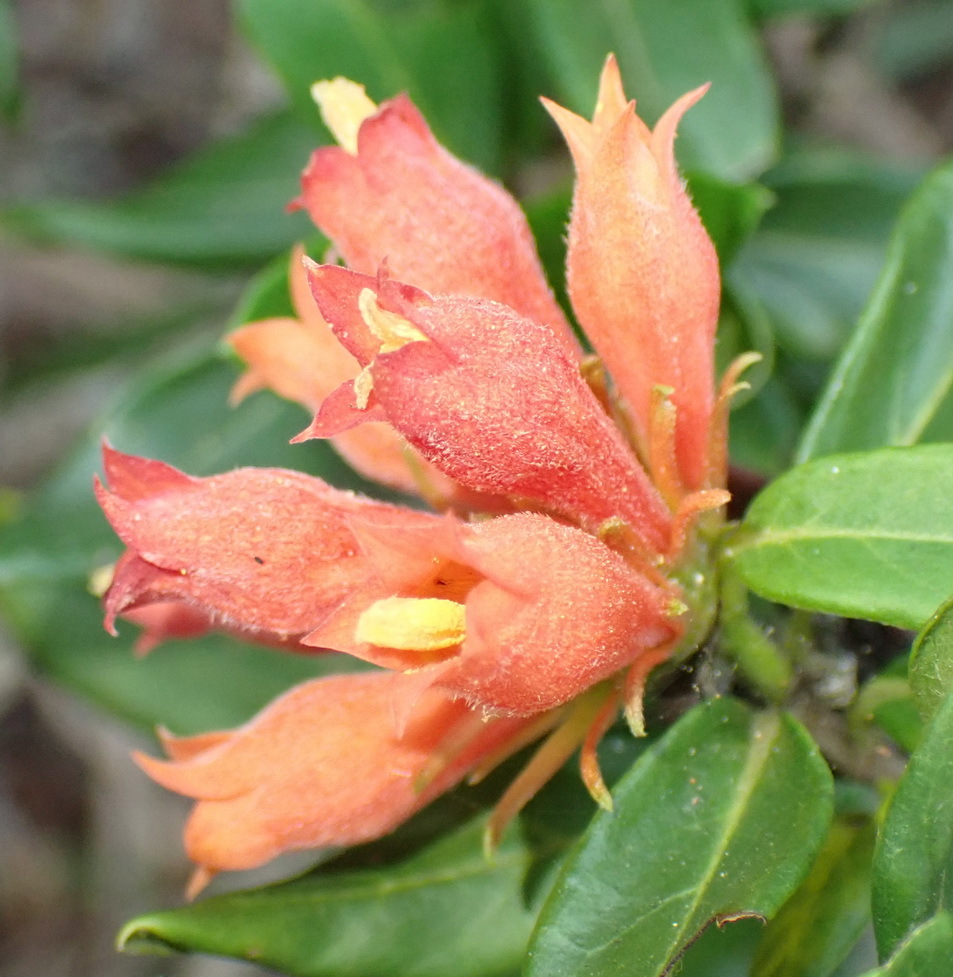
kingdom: Plantae
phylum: Tracheophyta
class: Magnoliopsida
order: Gentianales
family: Rubiaceae
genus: Burchellia
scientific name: Burchellia bubalina
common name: Wild pomegranate
